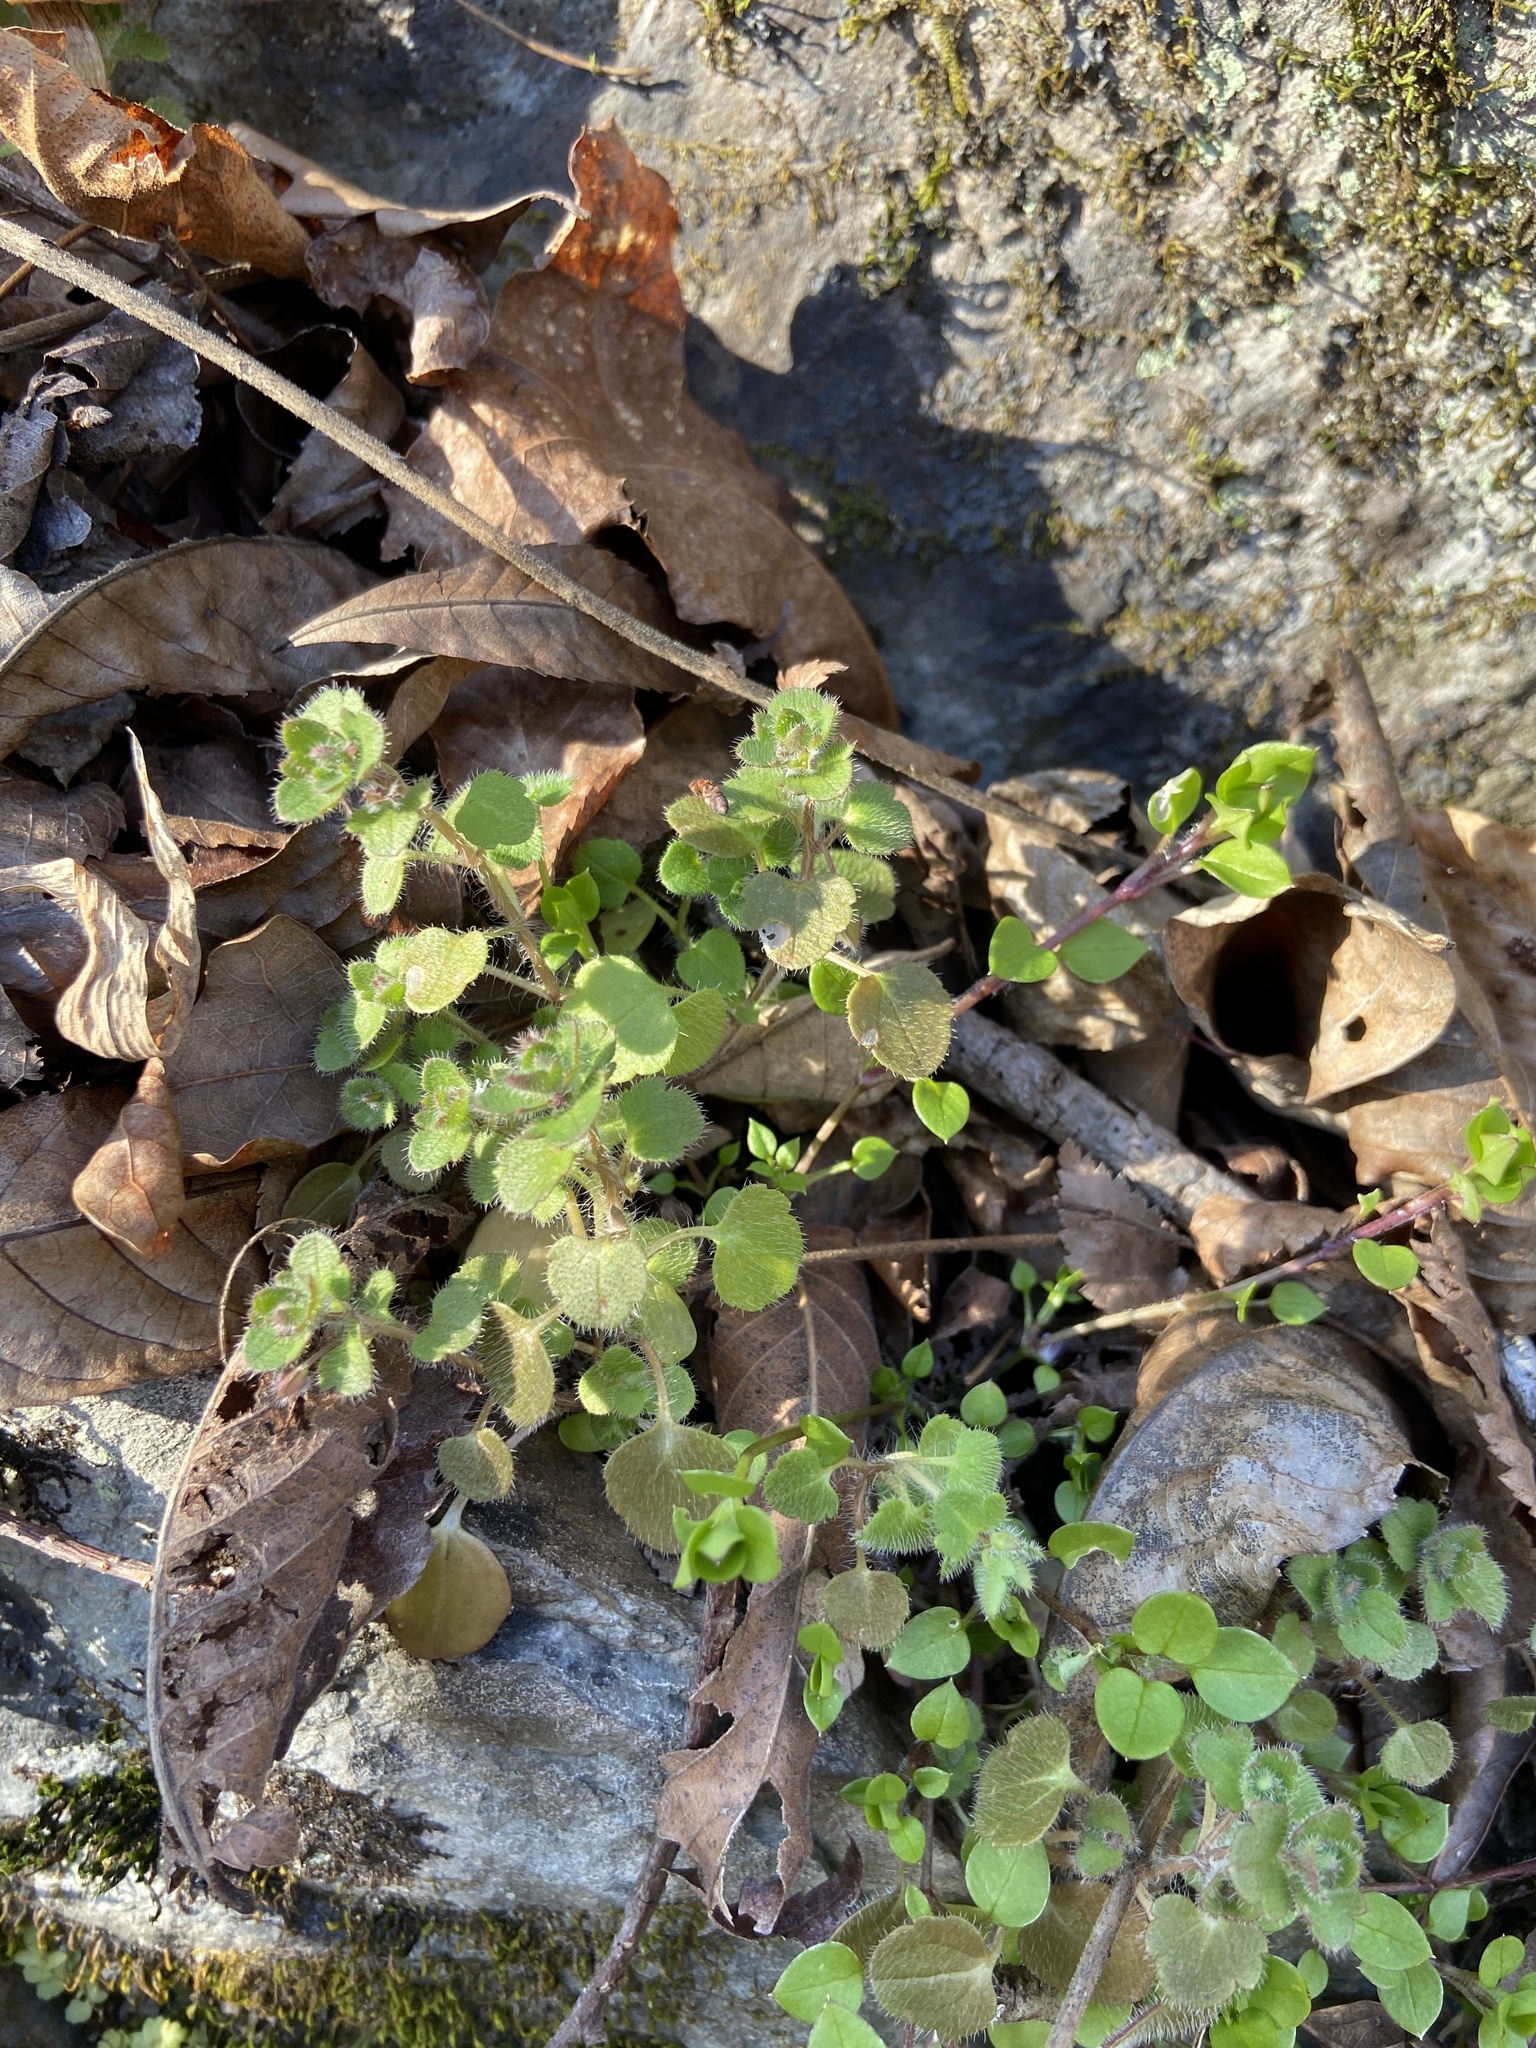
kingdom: Plantae
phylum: Tracheophyta
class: Magnoliopsida
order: Lamiales
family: Plantaginaceae
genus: Veronica
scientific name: Veronica hederifolia
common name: Ivy-leaved speedwell
